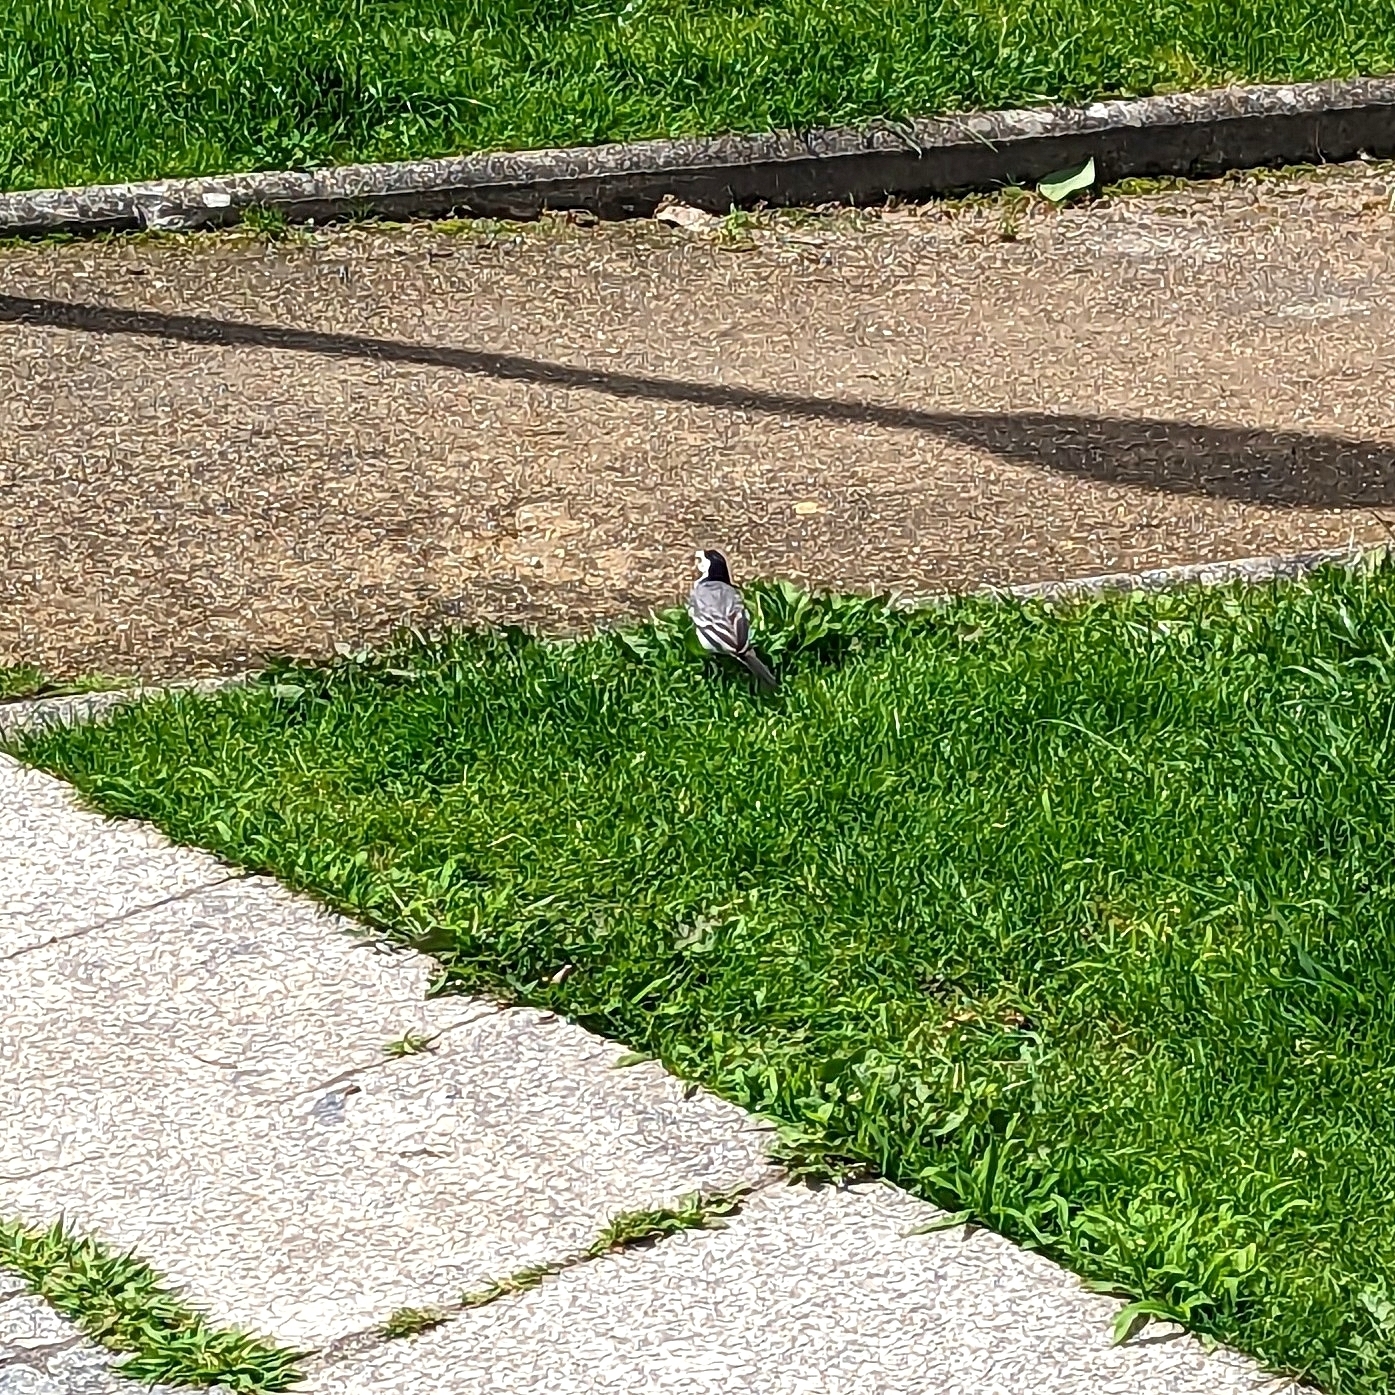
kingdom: Animalia
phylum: Chordata
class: Aves
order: Passeriformes
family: Motacillidae
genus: Motacilla
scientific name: Motacilla alba
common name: White wagtail
